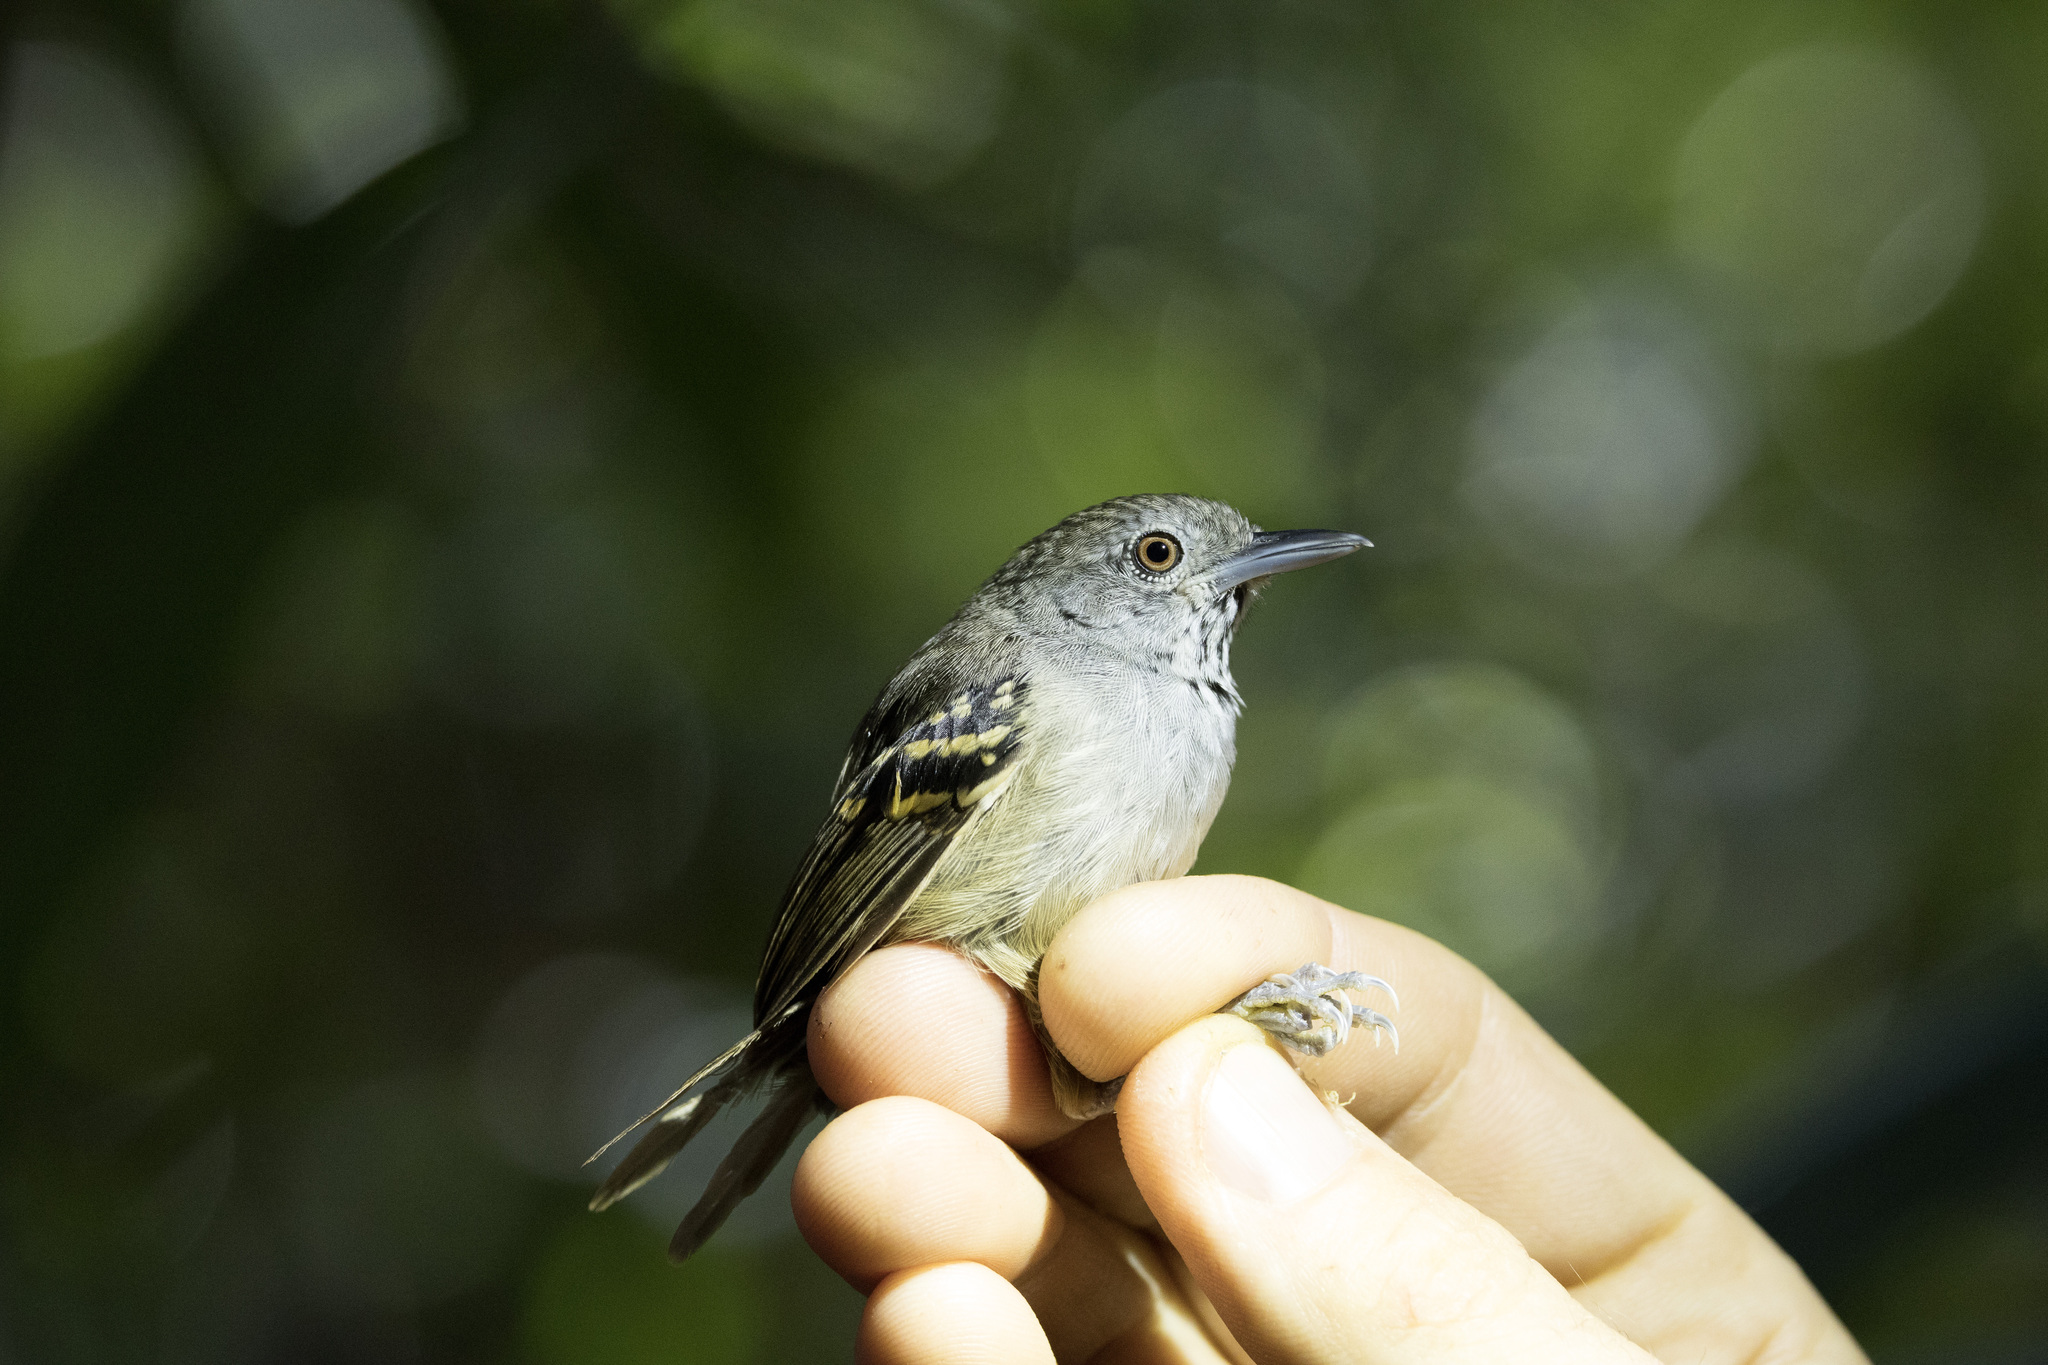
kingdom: Animalia
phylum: Chordata
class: Aves
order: Passeriformes
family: Thamnophilidae
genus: Epinecrophylla
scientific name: Epinecrophylla leucophthalma
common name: White-eyed antwren
